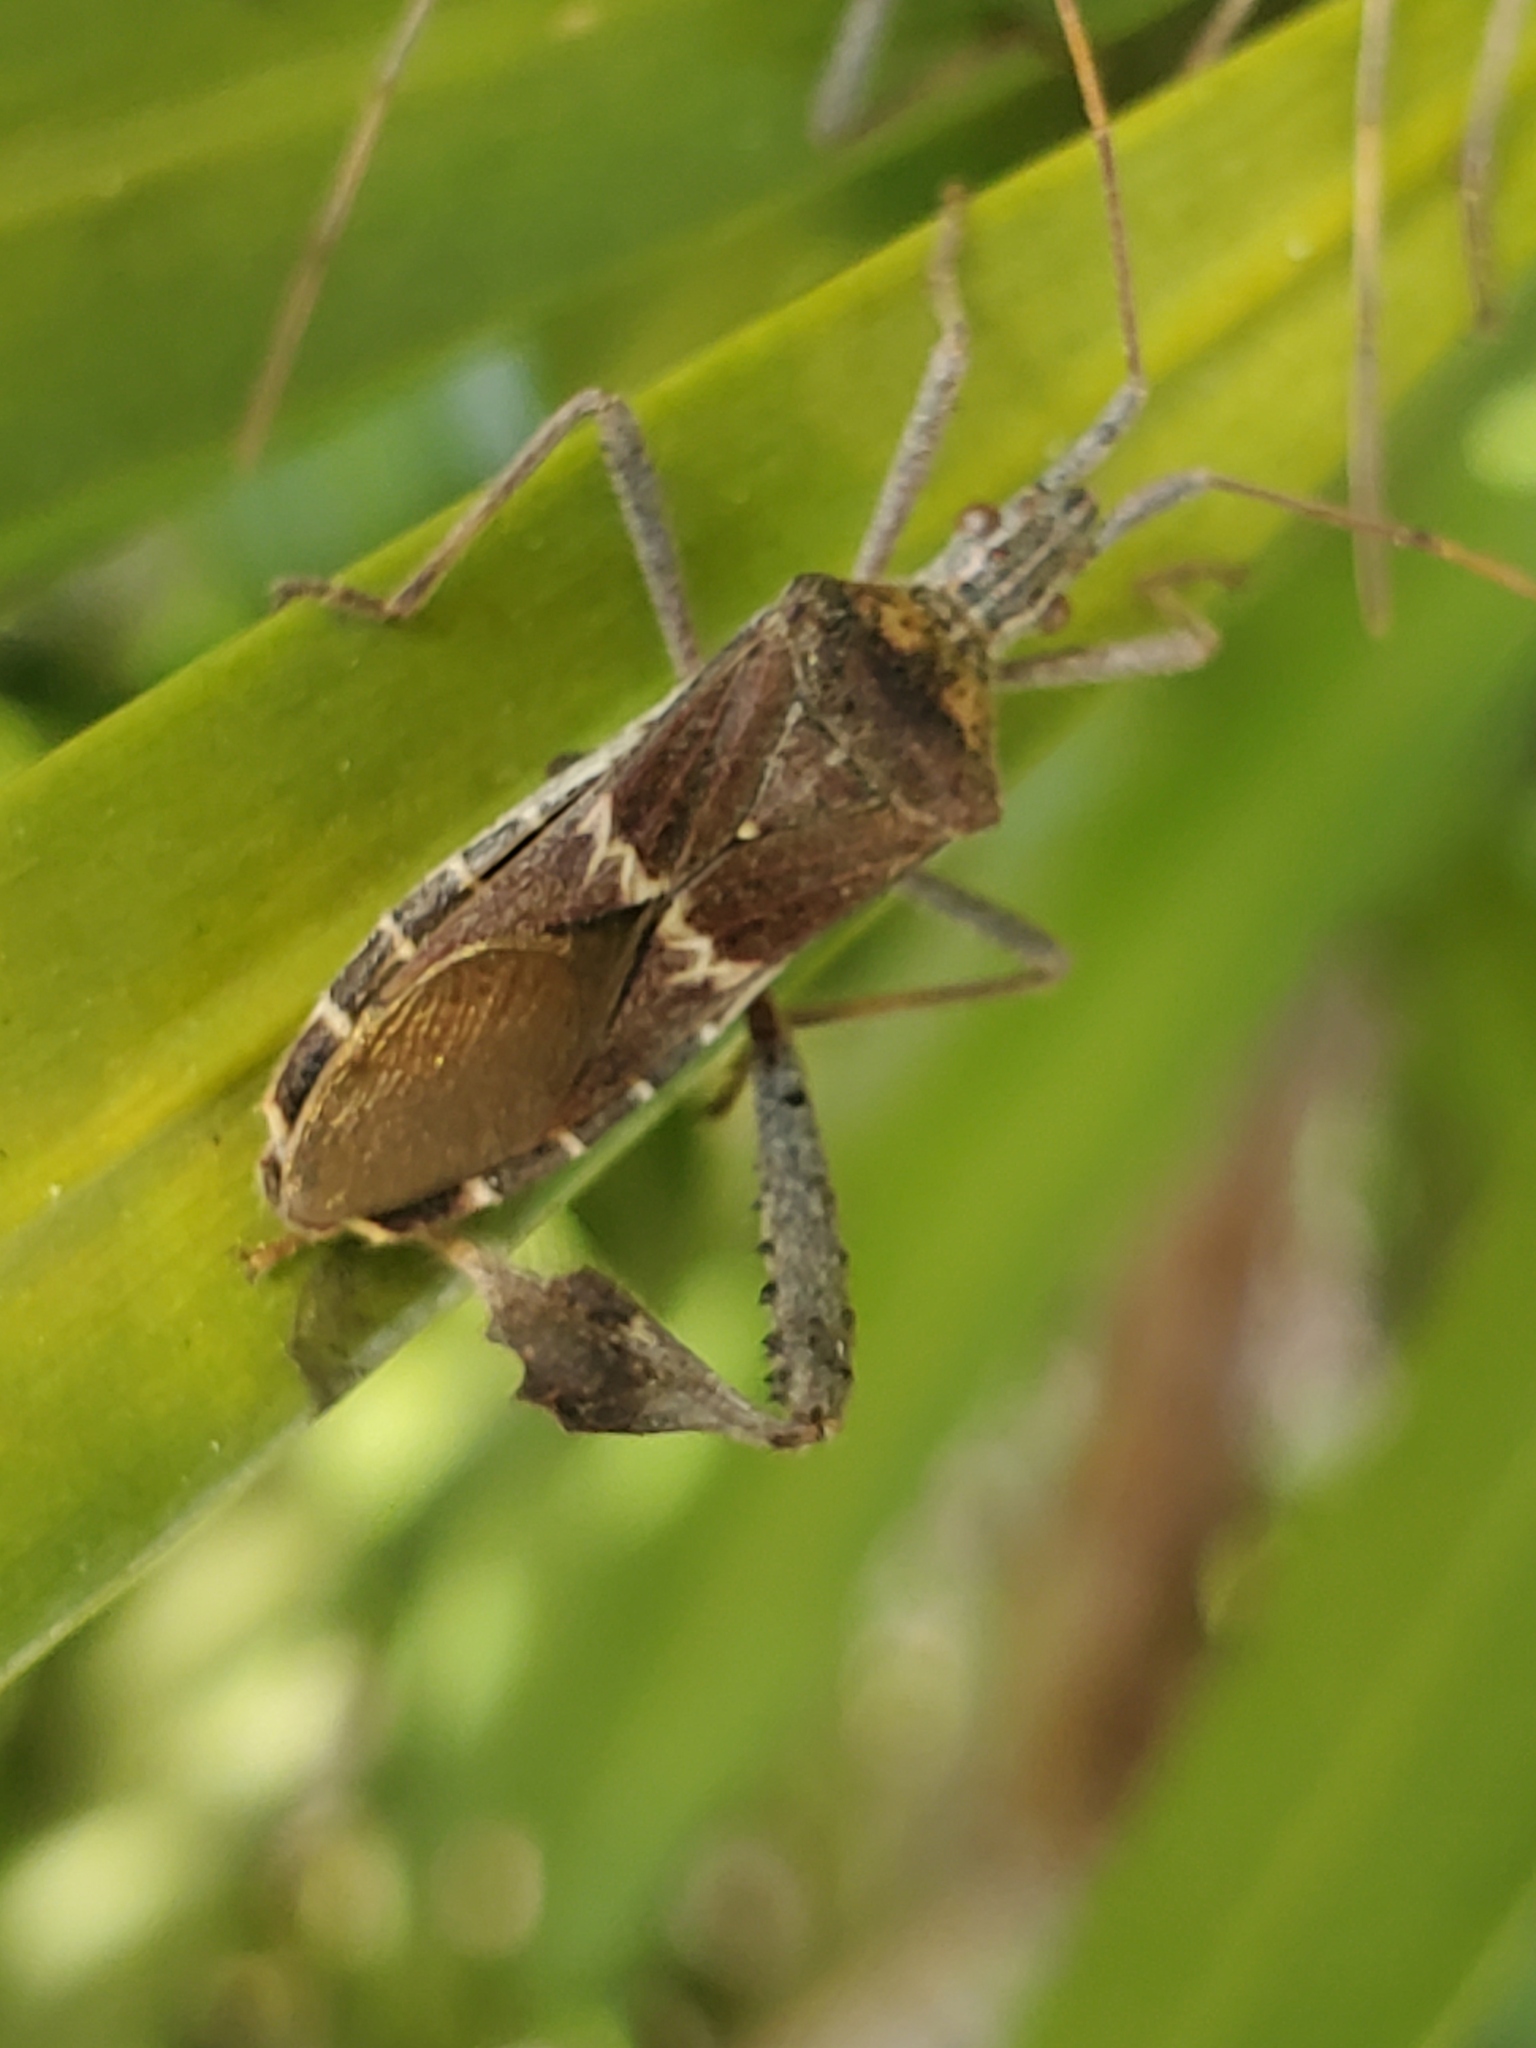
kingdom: Animalia
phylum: Arthropoda
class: Insecta
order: Hemiptera
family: Coreidae
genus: Leptoglossus
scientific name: Leptoglossus zonatus
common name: Large-legged bug
